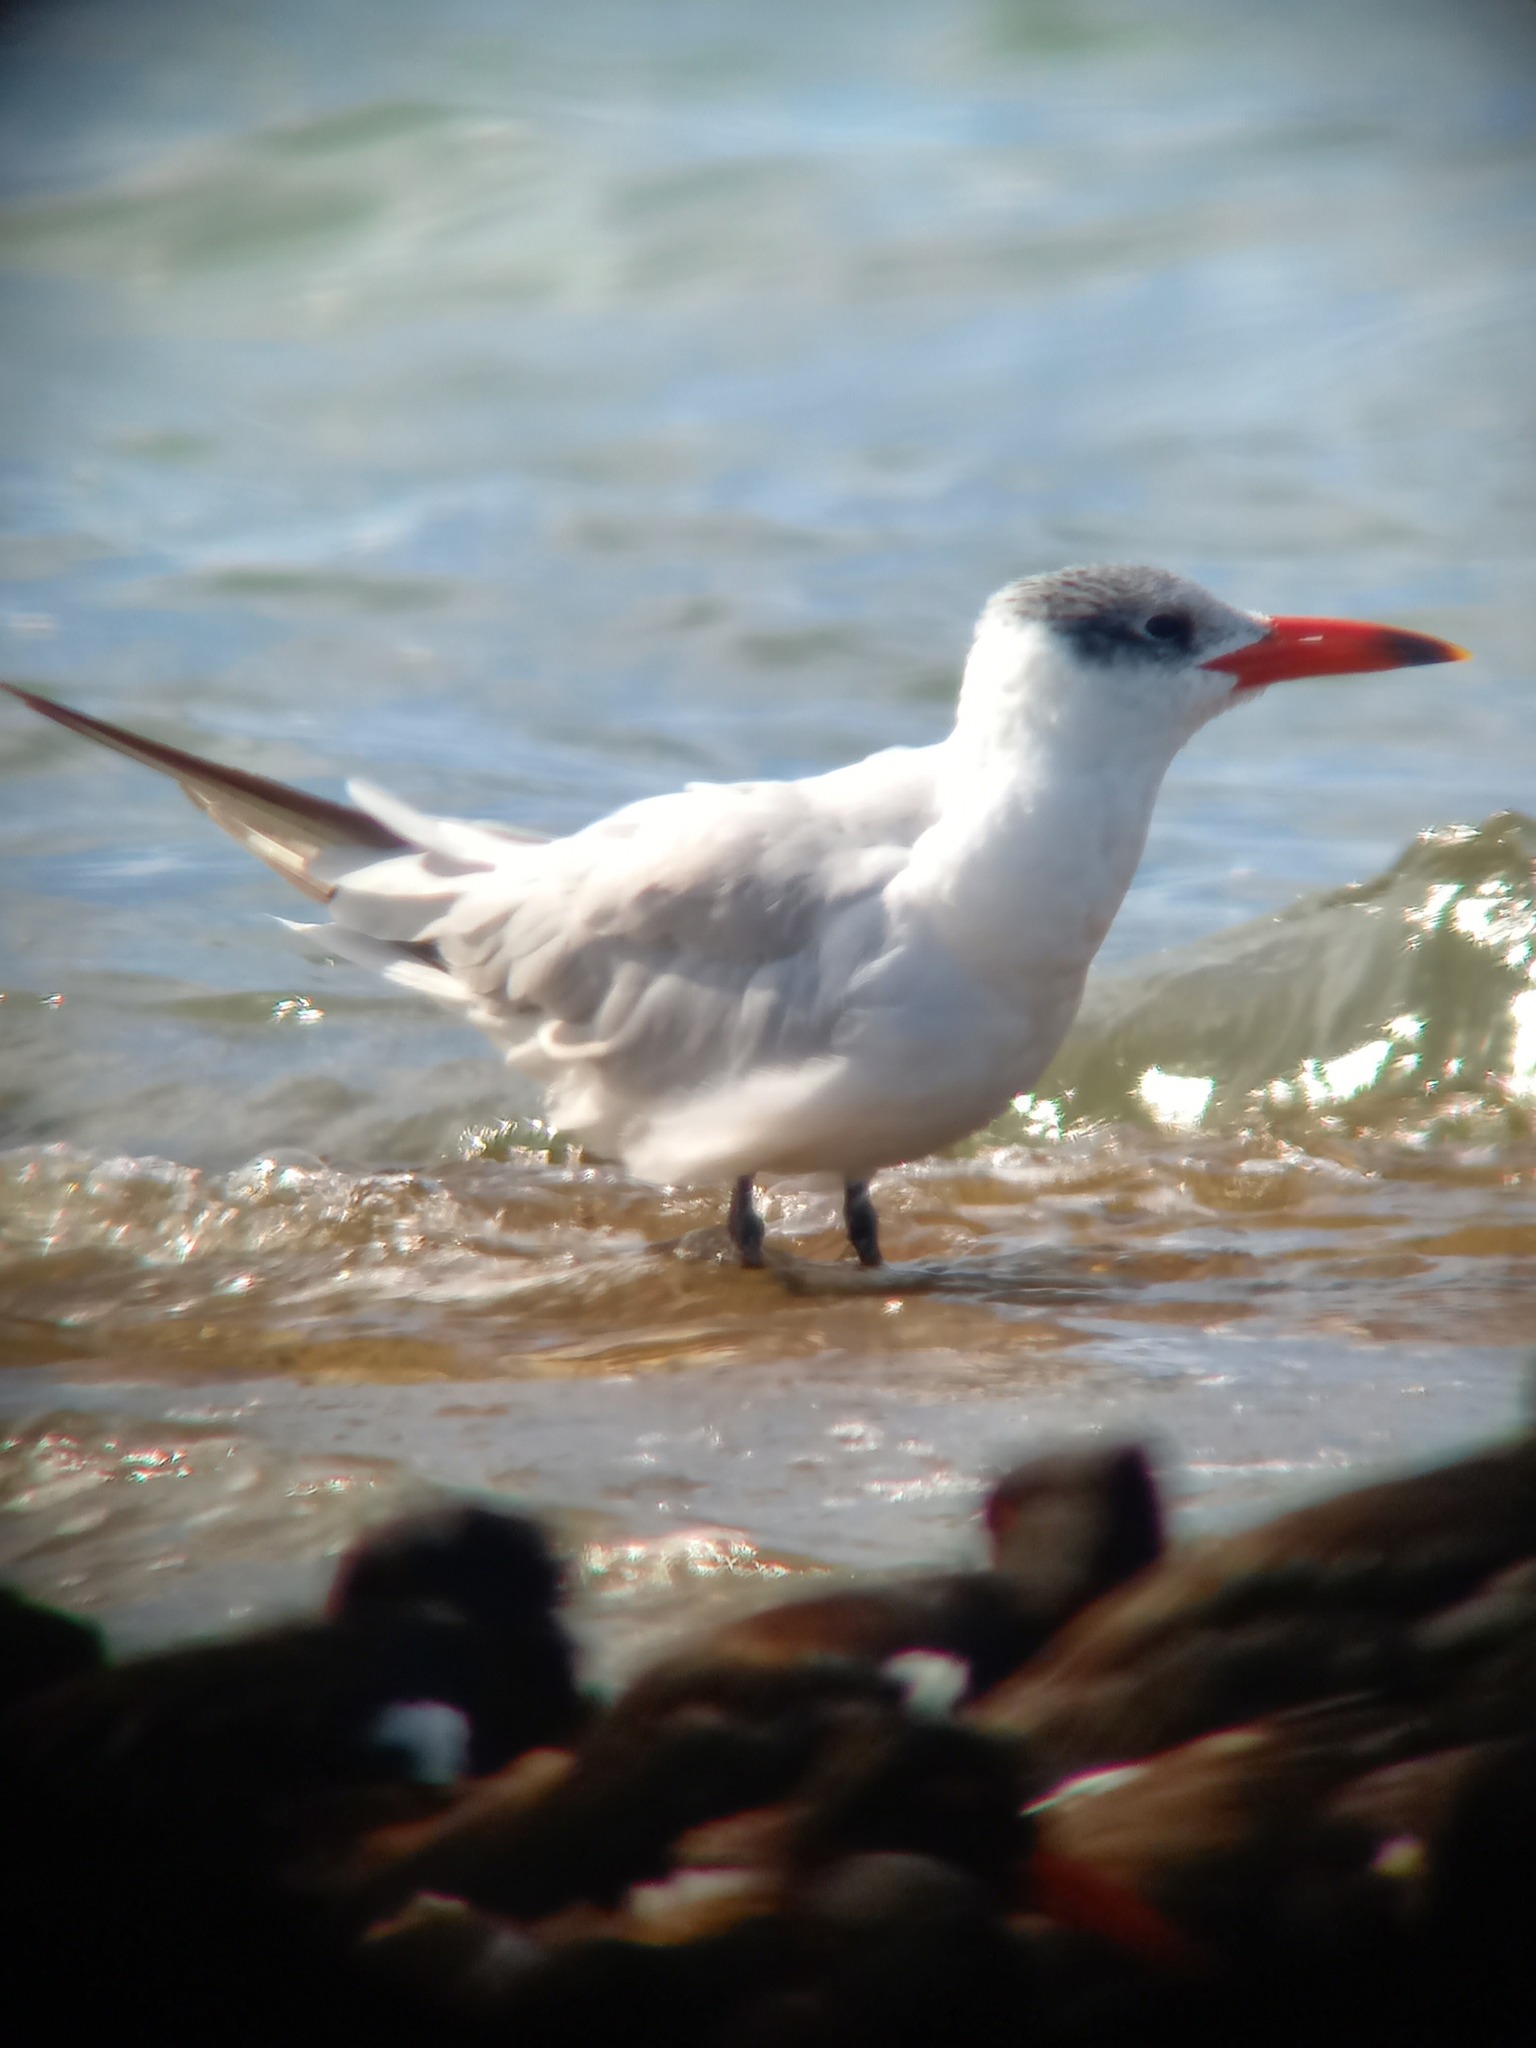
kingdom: Animalia
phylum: Chordata
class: Aves
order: Charadriiformes
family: Laridae
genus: Hydroprogne
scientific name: Hydroprogne caspia
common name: Caspian tern
